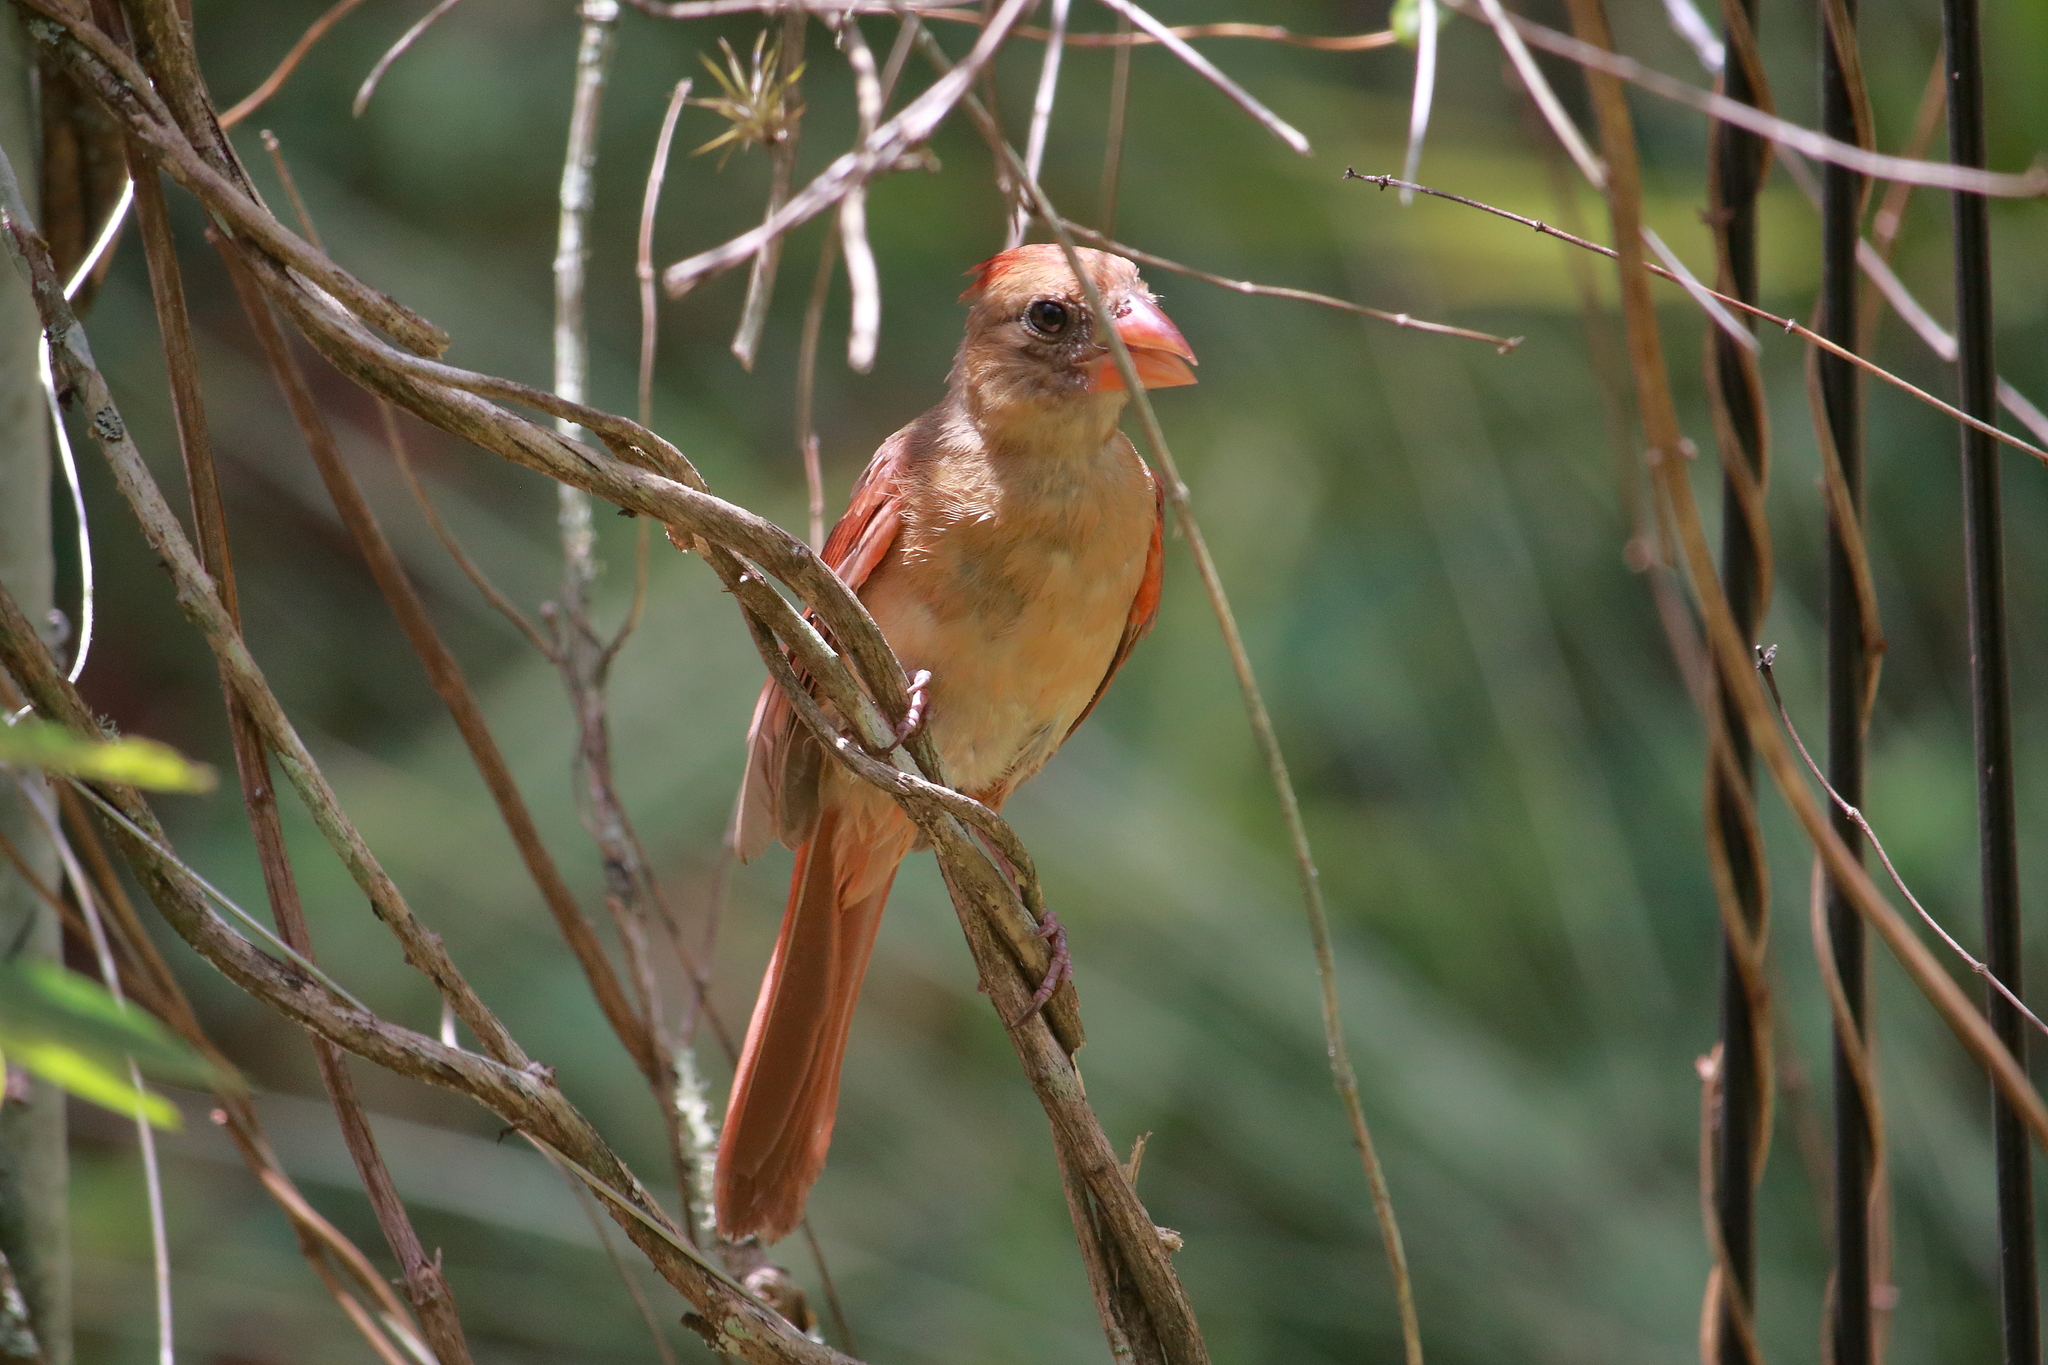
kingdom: Animalia
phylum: Chordata
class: Aves
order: Passeriformes
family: Cardinalidae
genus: Cardinalis
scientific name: Cardinalis cardinalis
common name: Northern cardinal
